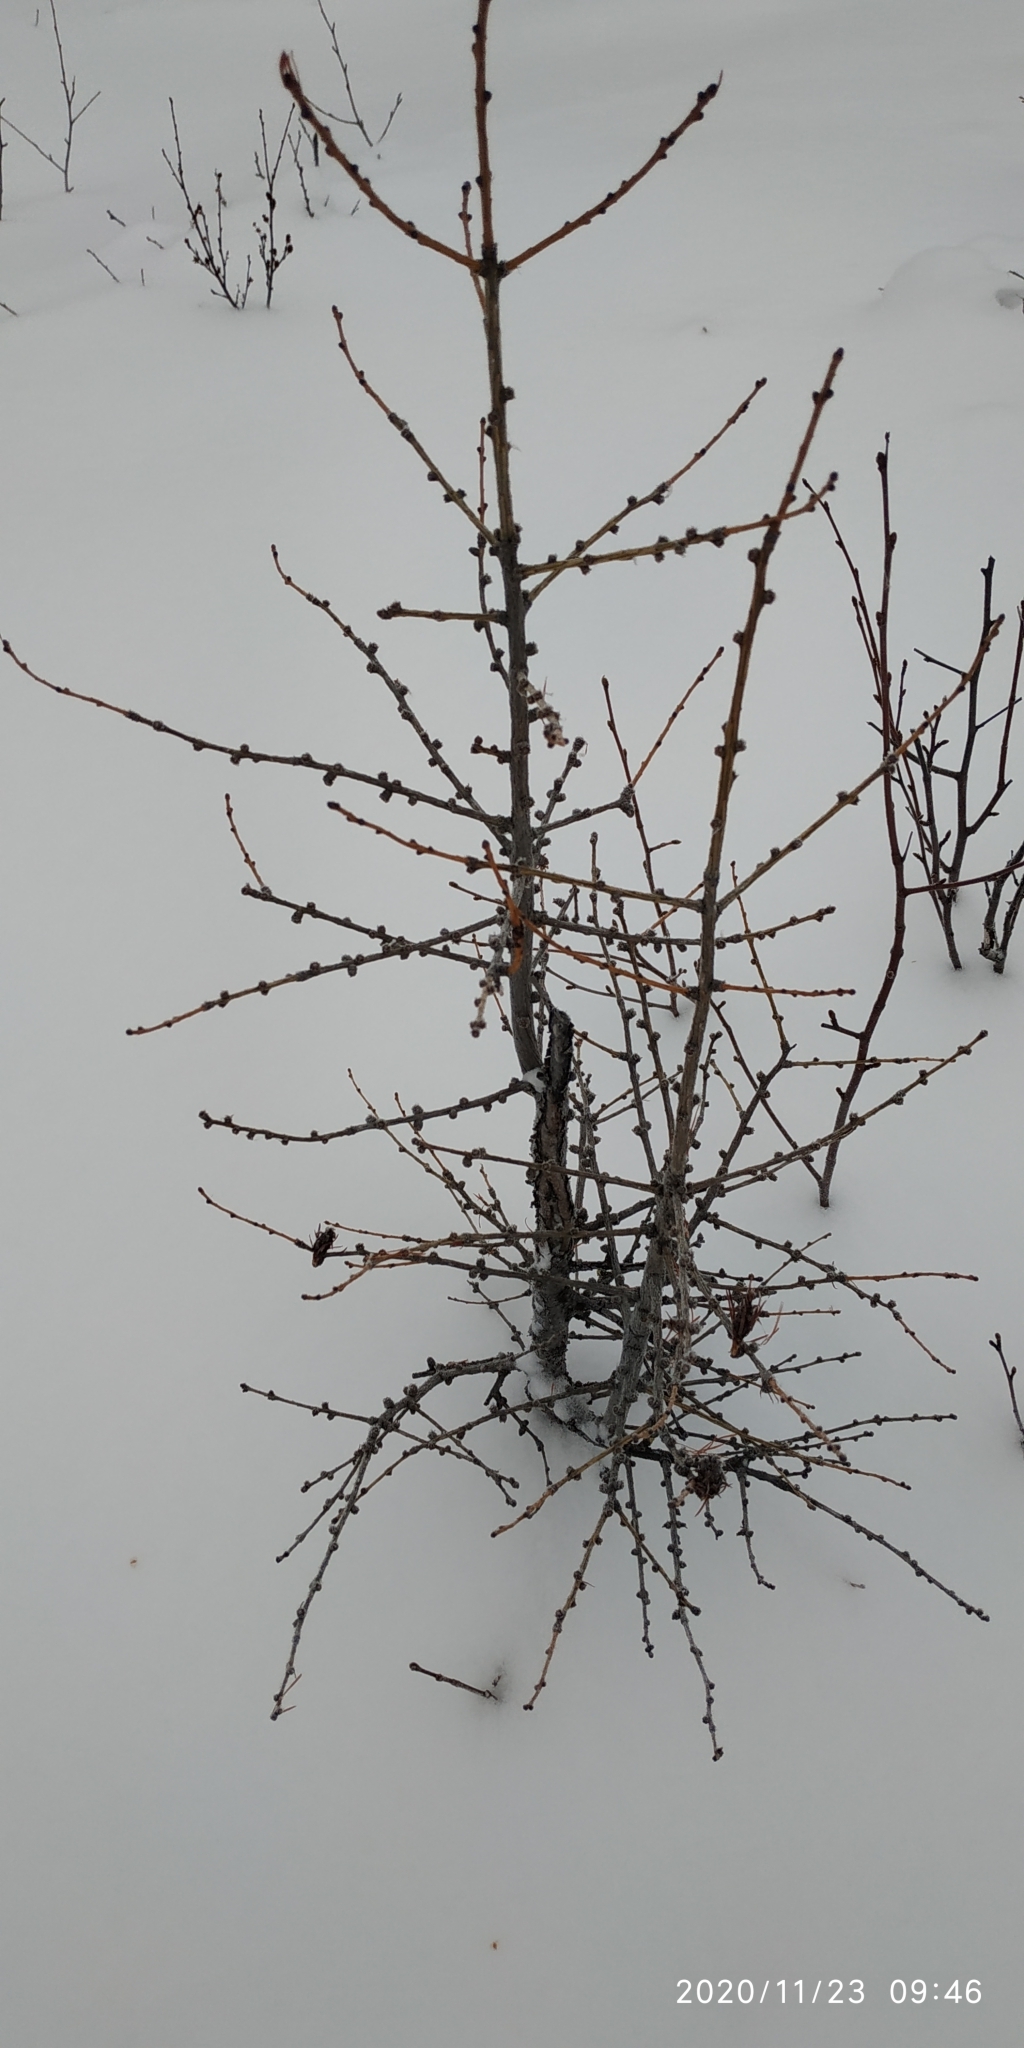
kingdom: Plantae
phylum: Tracheophyta
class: Pinopsida
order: Pinales
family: Pinaceae
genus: Larix
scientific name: Larix sibirica
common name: Siberian larch
